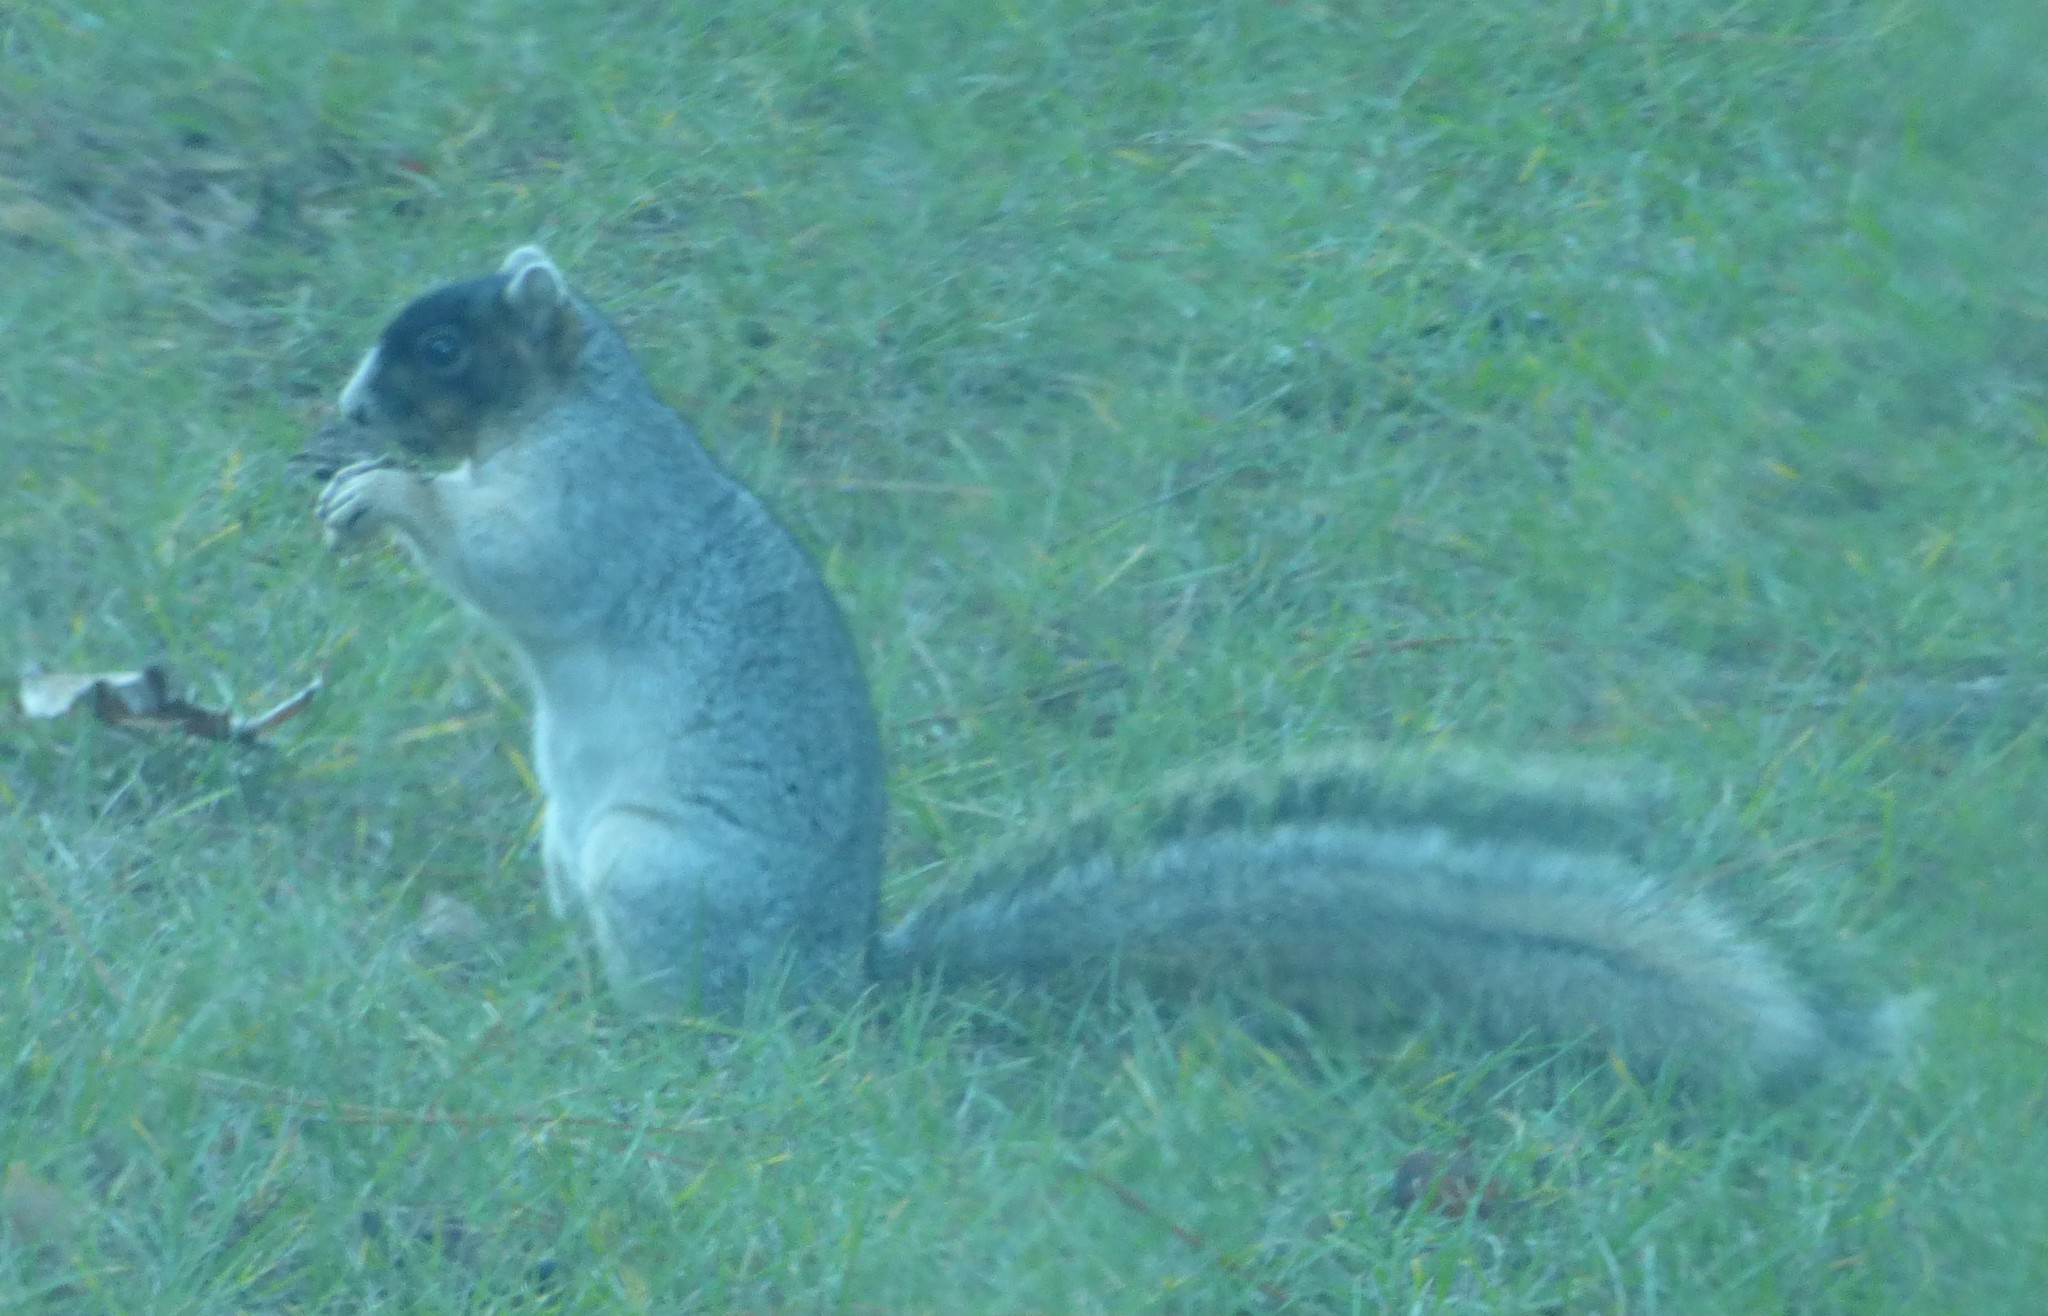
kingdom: Animalia
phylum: Chordata
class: Mammalia
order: Rodentia
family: Sciuridae
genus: Sciurus
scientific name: Sciurus niger
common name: Fox squirrel
